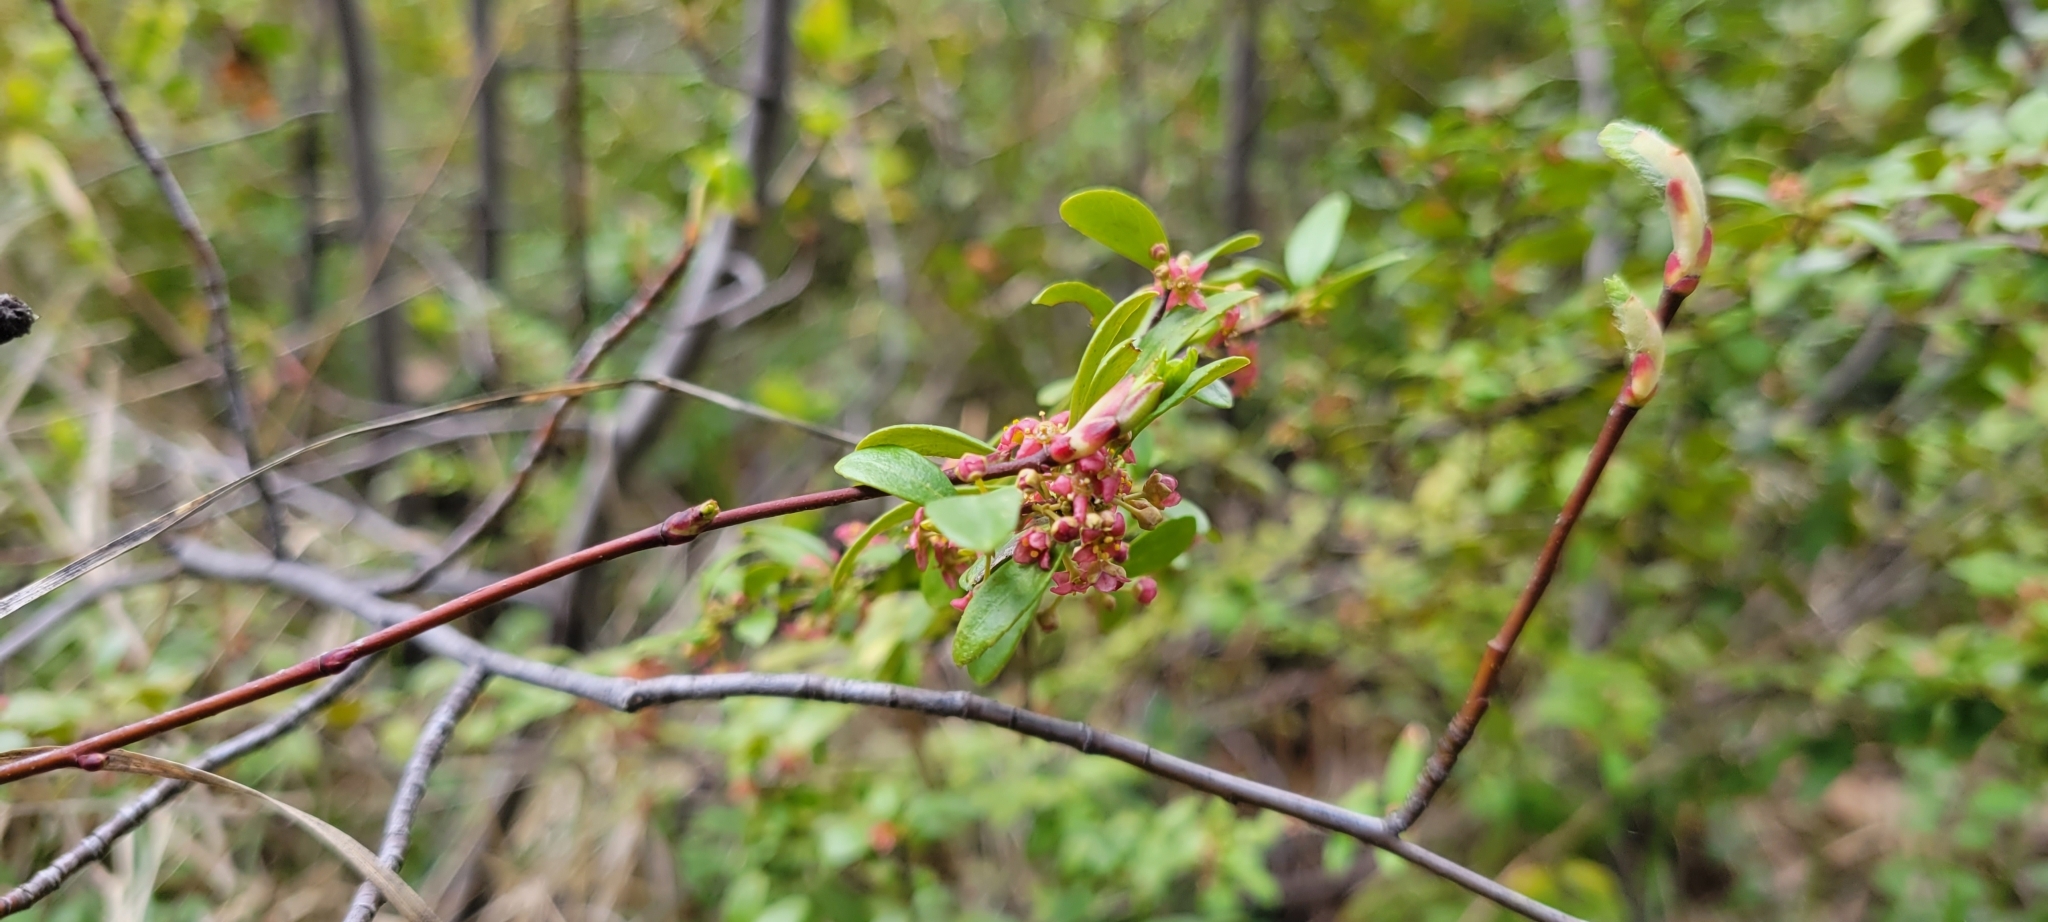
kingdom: Plantae
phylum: Tracheophyta
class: Magnoliopsida
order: Celastrales
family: Celastraceae
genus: Paxistima
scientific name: Paxistima myrsinites
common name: Mountain-lover
